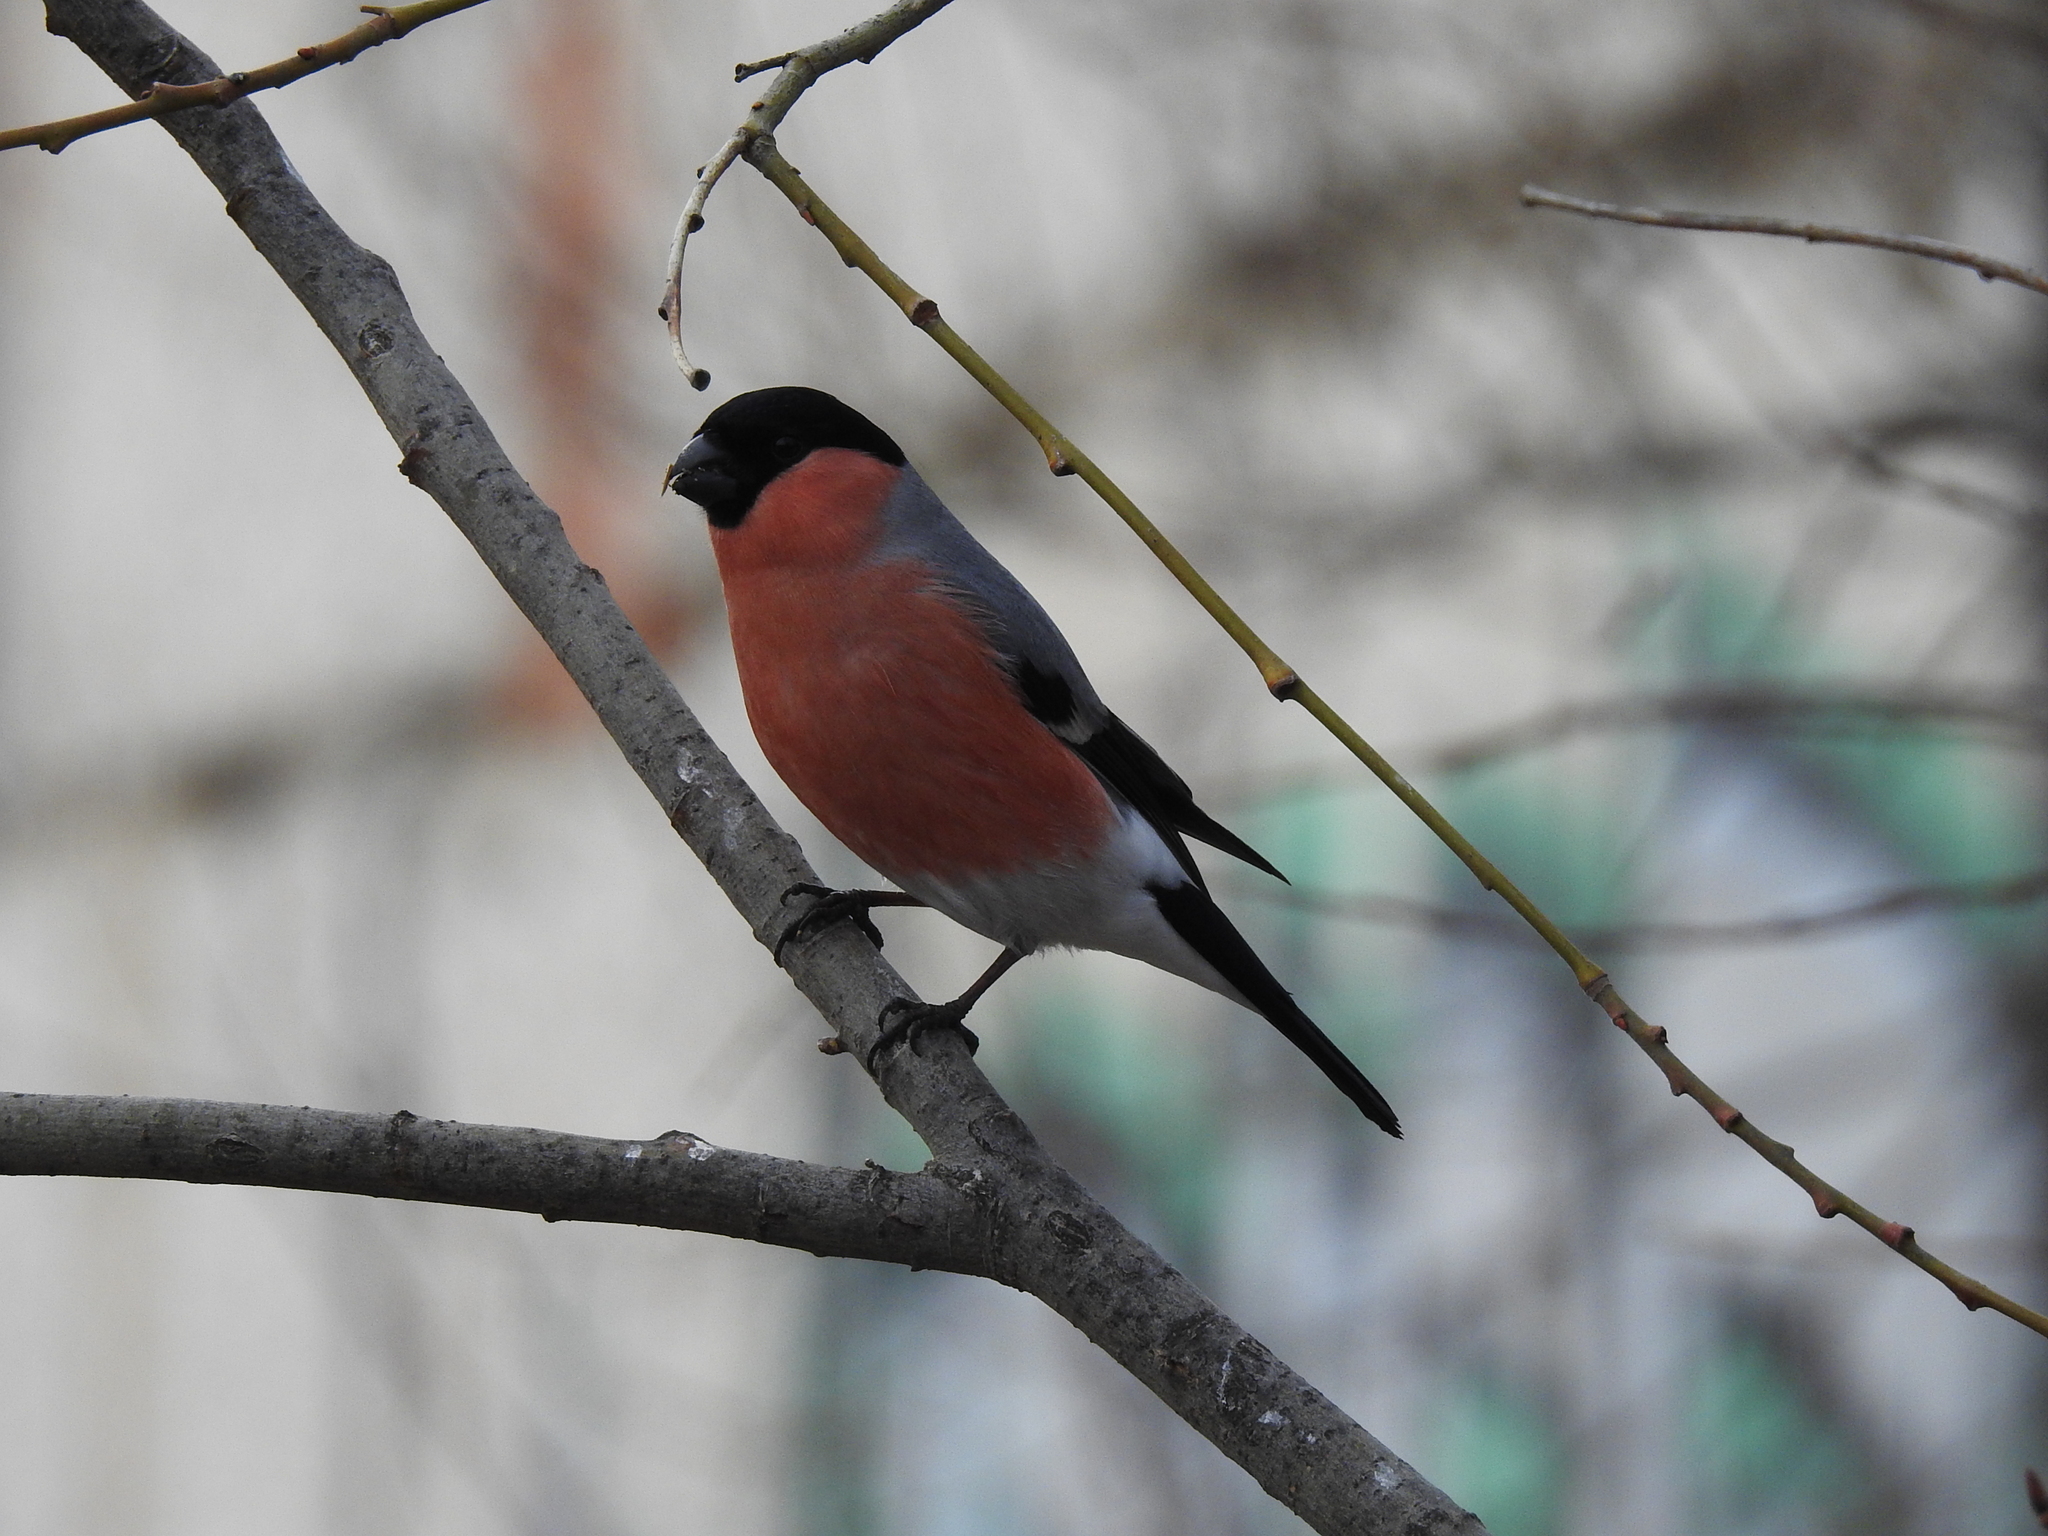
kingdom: Animalia
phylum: Chordata
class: Aves
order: Passeriformes
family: Fringillidae
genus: Pyrrhula
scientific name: Pyrrhula pyrrhula
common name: Eurasian bullfinch
